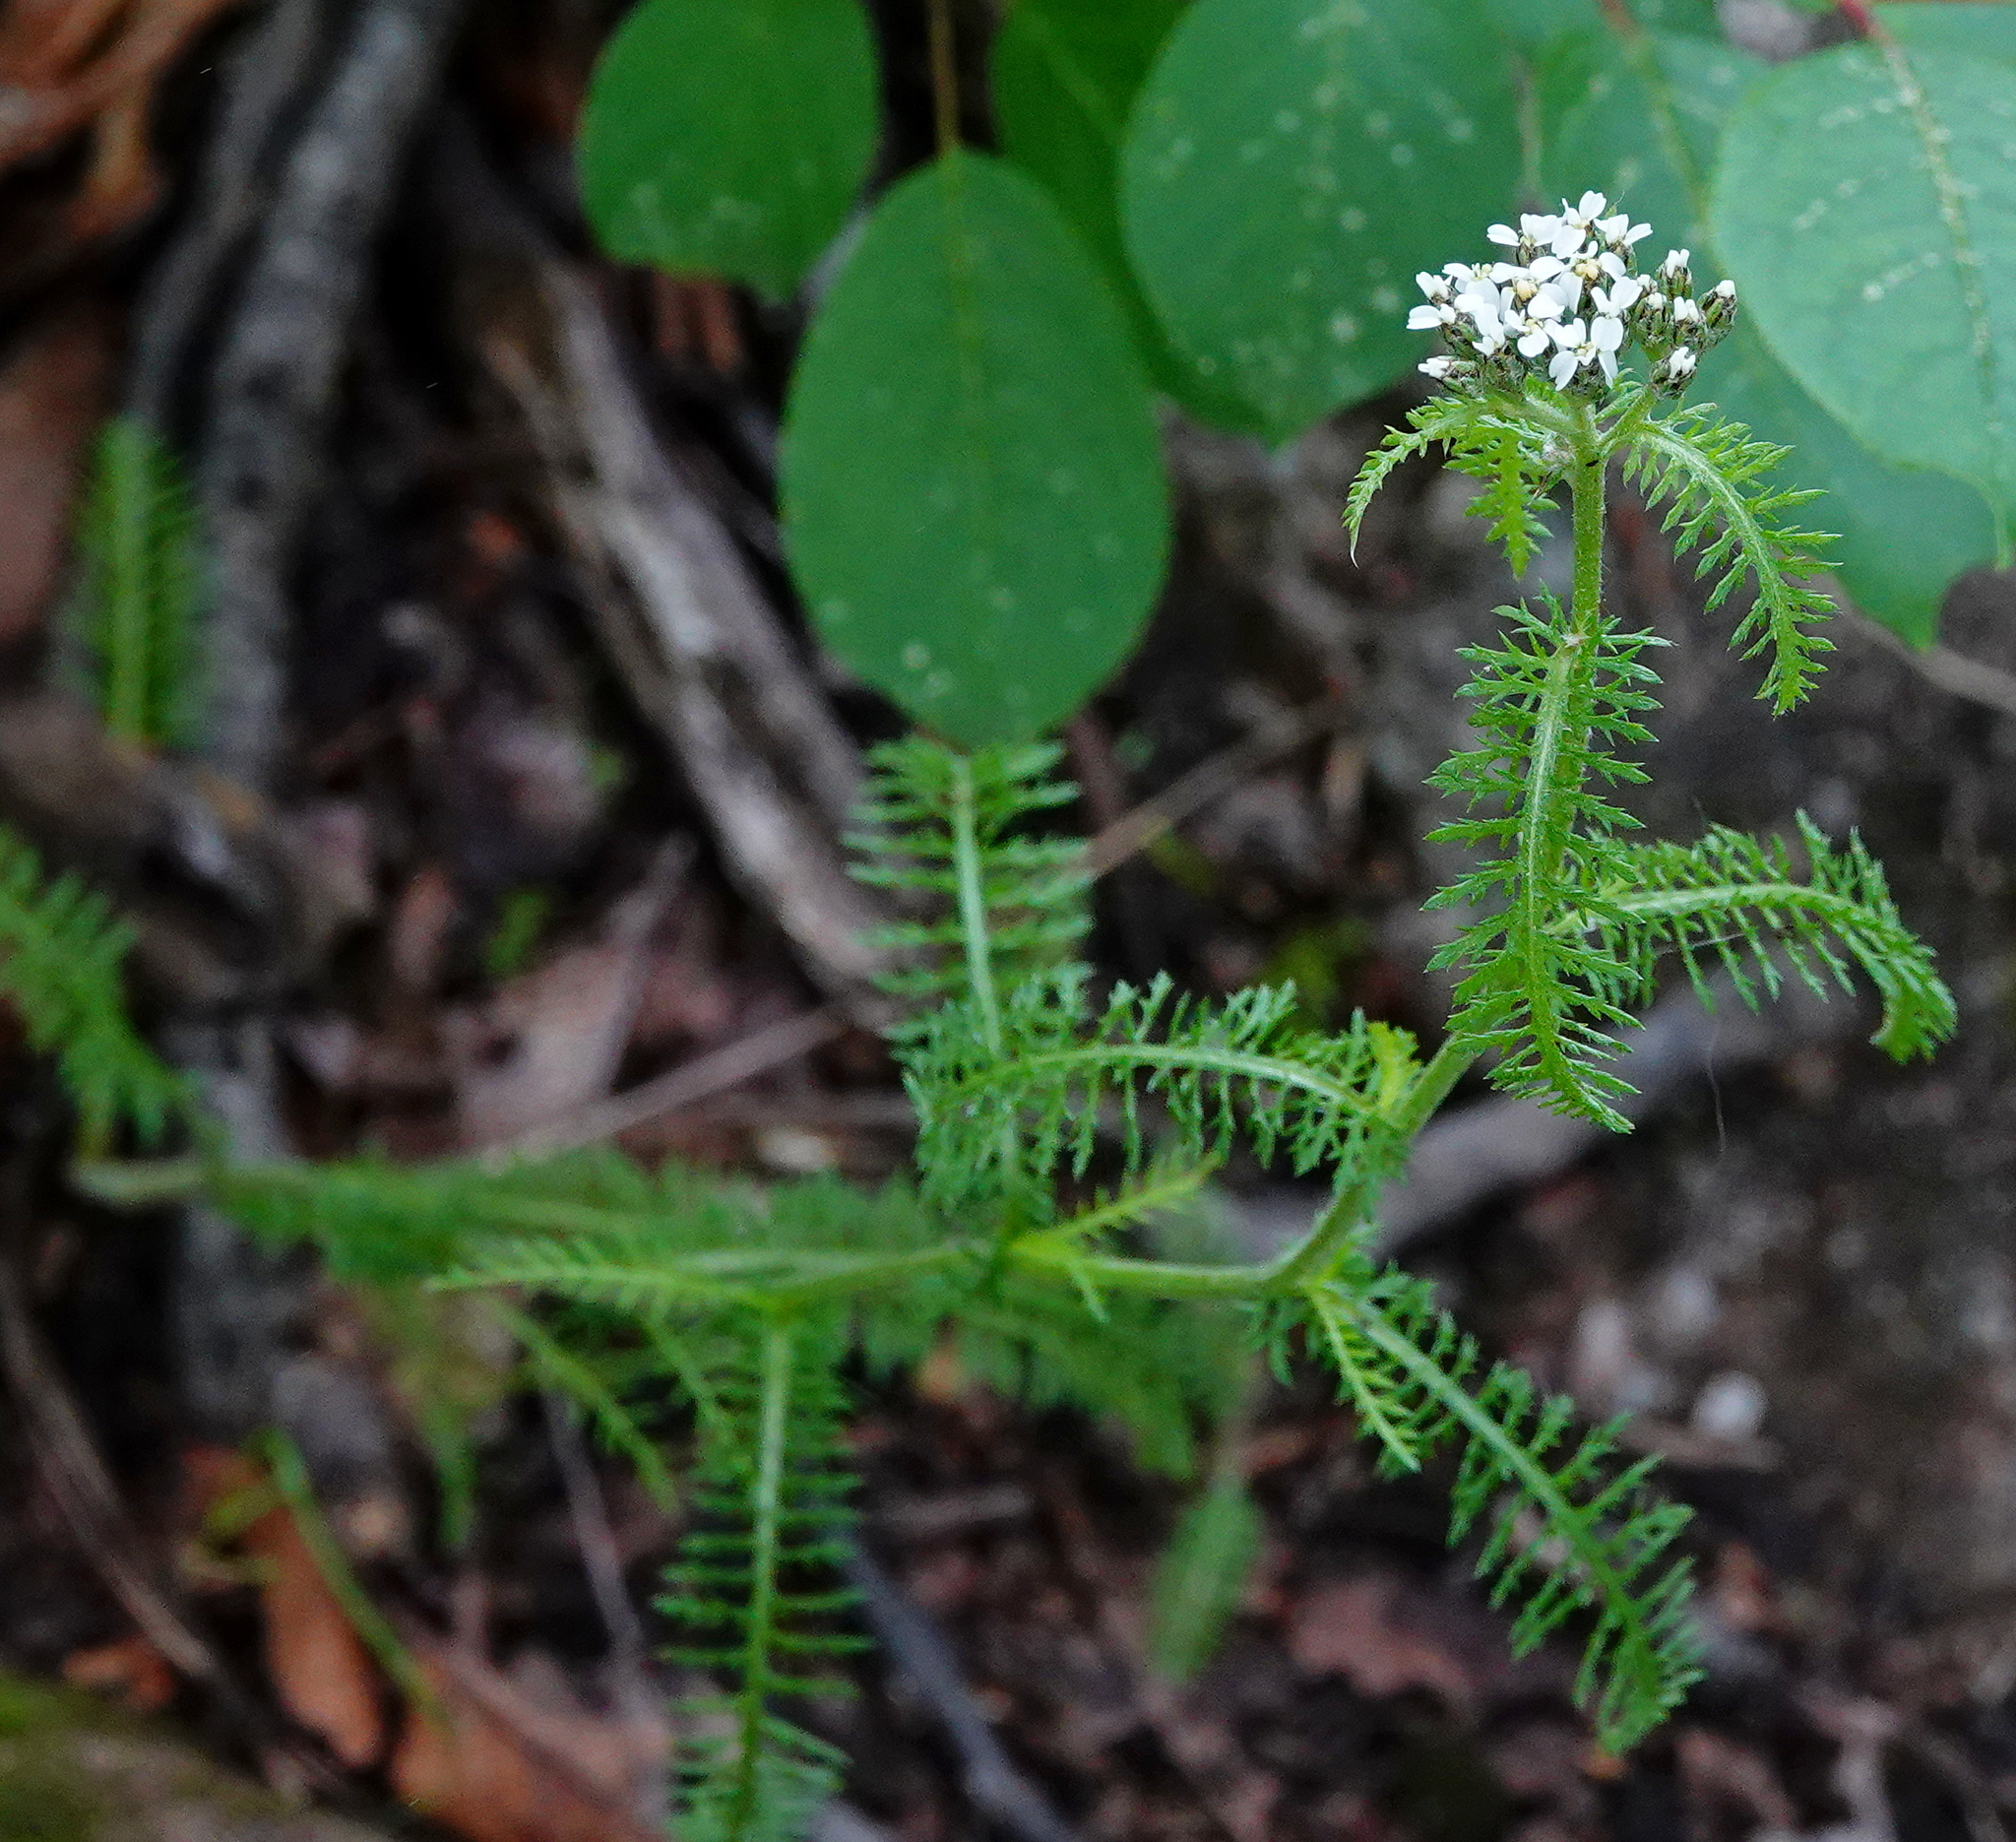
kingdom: Plantae
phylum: Tracheophyta
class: Magnoliopsida
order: Asterales
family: Asteraceae
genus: Achillea
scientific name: Achillea millefolium
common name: Yarrow
